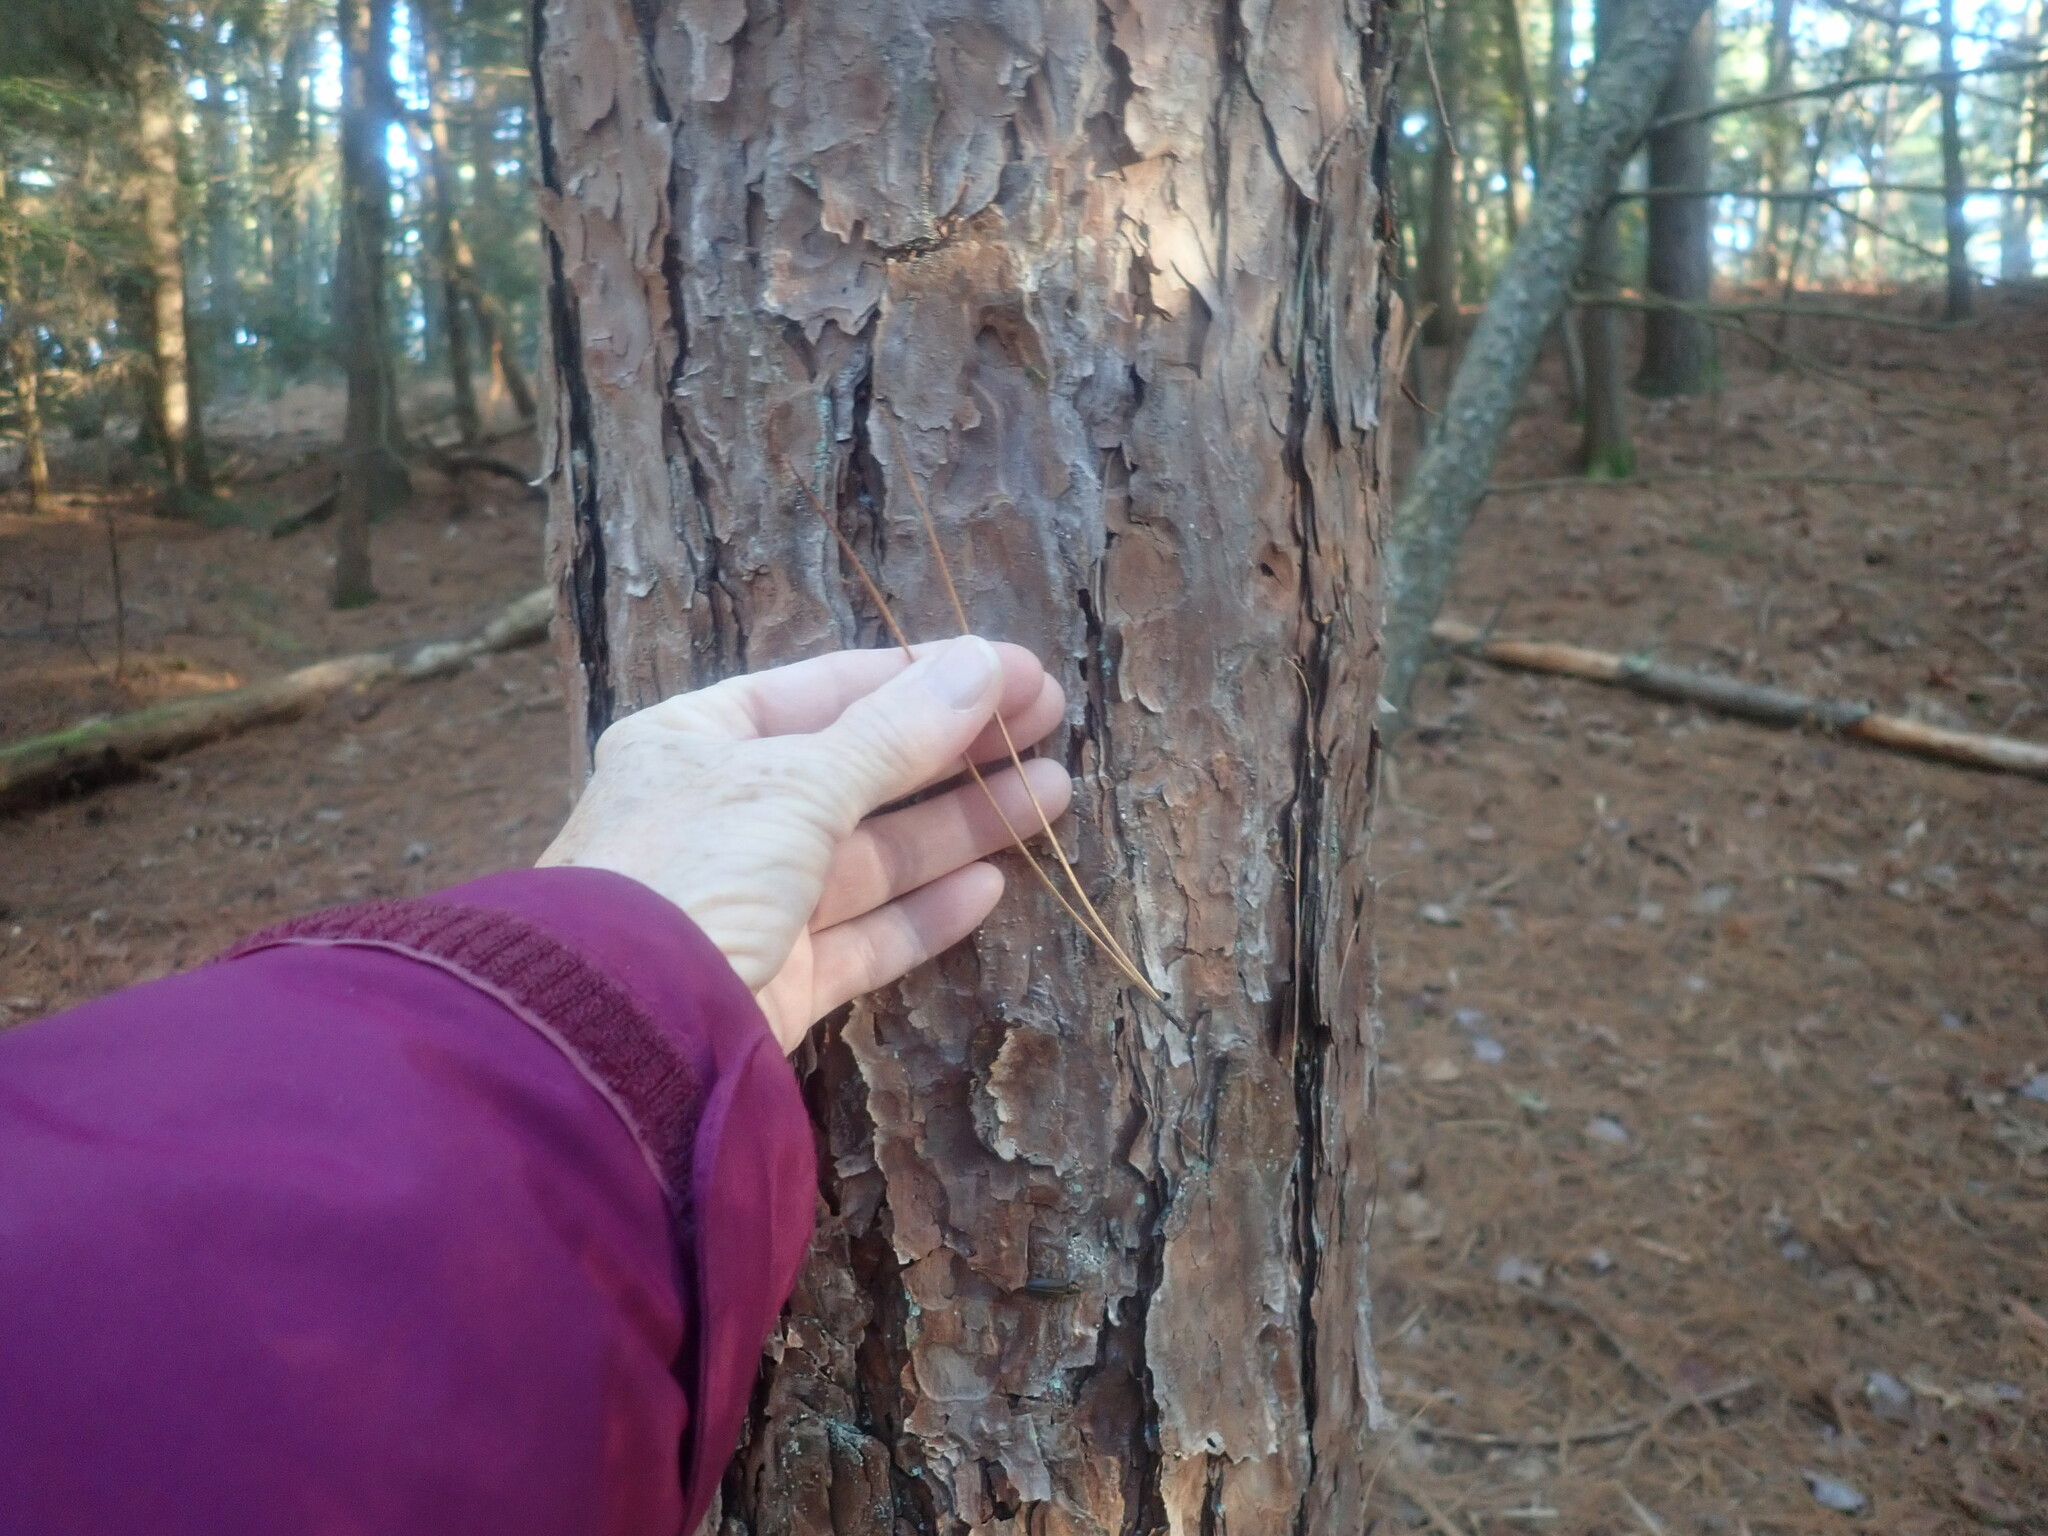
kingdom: Plantae
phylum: Tracheophyta
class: Pinopsida
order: Pinales
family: Pinaceae
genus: Pinus
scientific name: Pinus resinosa
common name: Norway pine
